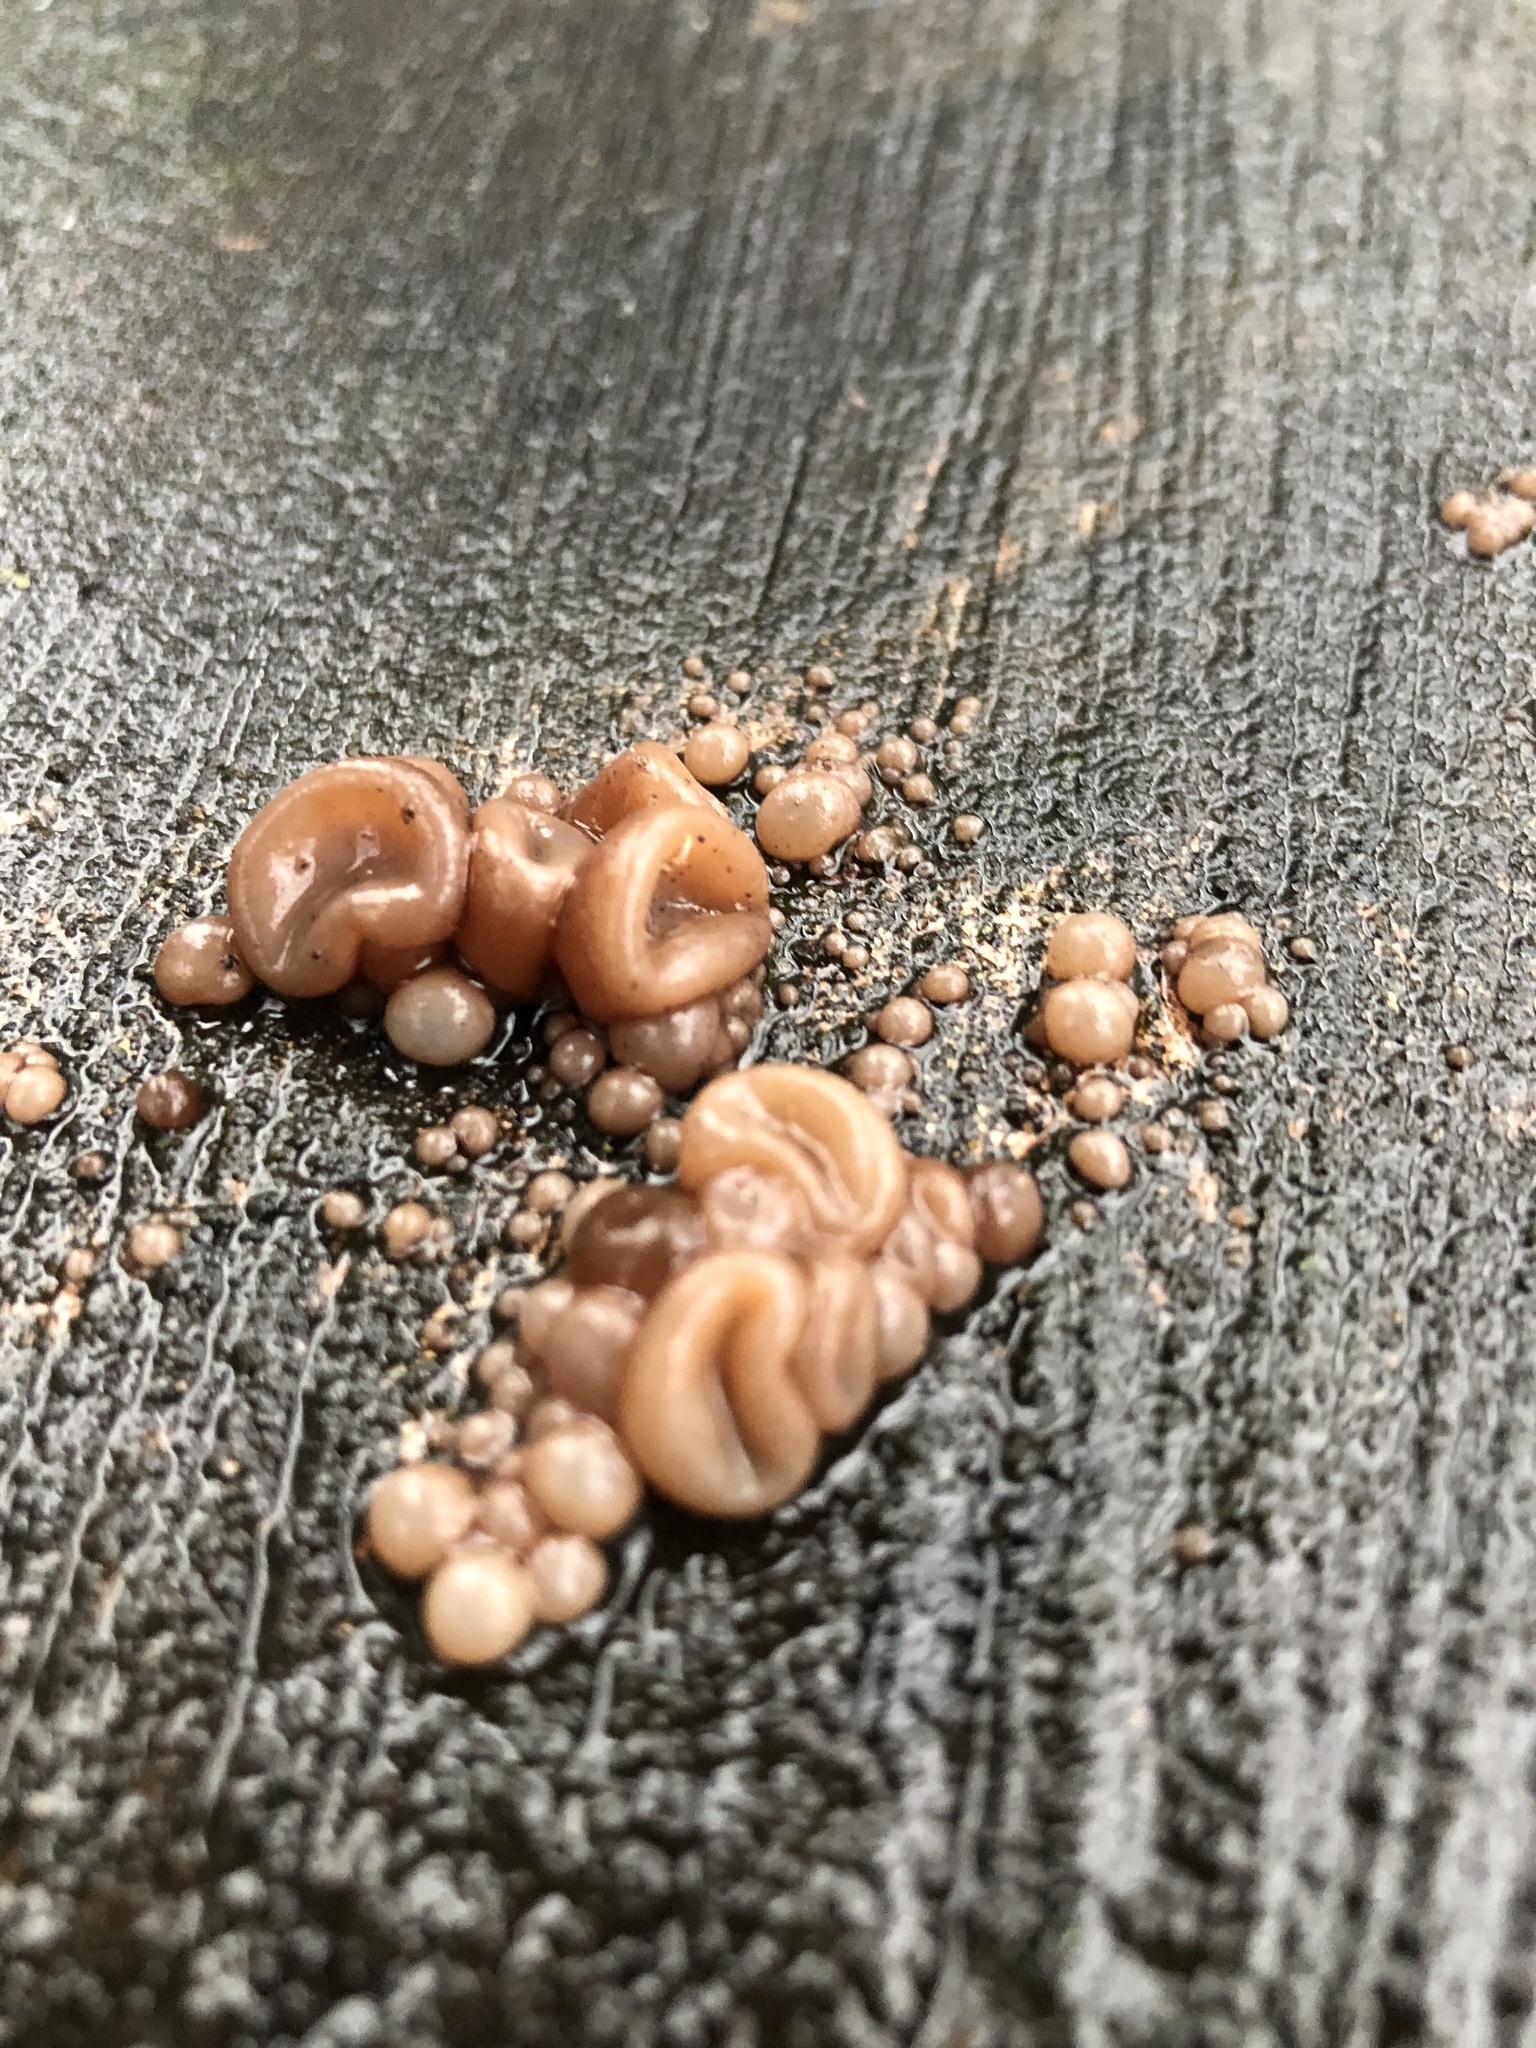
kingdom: Fungi
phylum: Basidiomycota
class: Agaricomycetes
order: Auriculariales
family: Auriculariaceae
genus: Auricularia
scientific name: Auricularia auricula-judae
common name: Jelly ear
